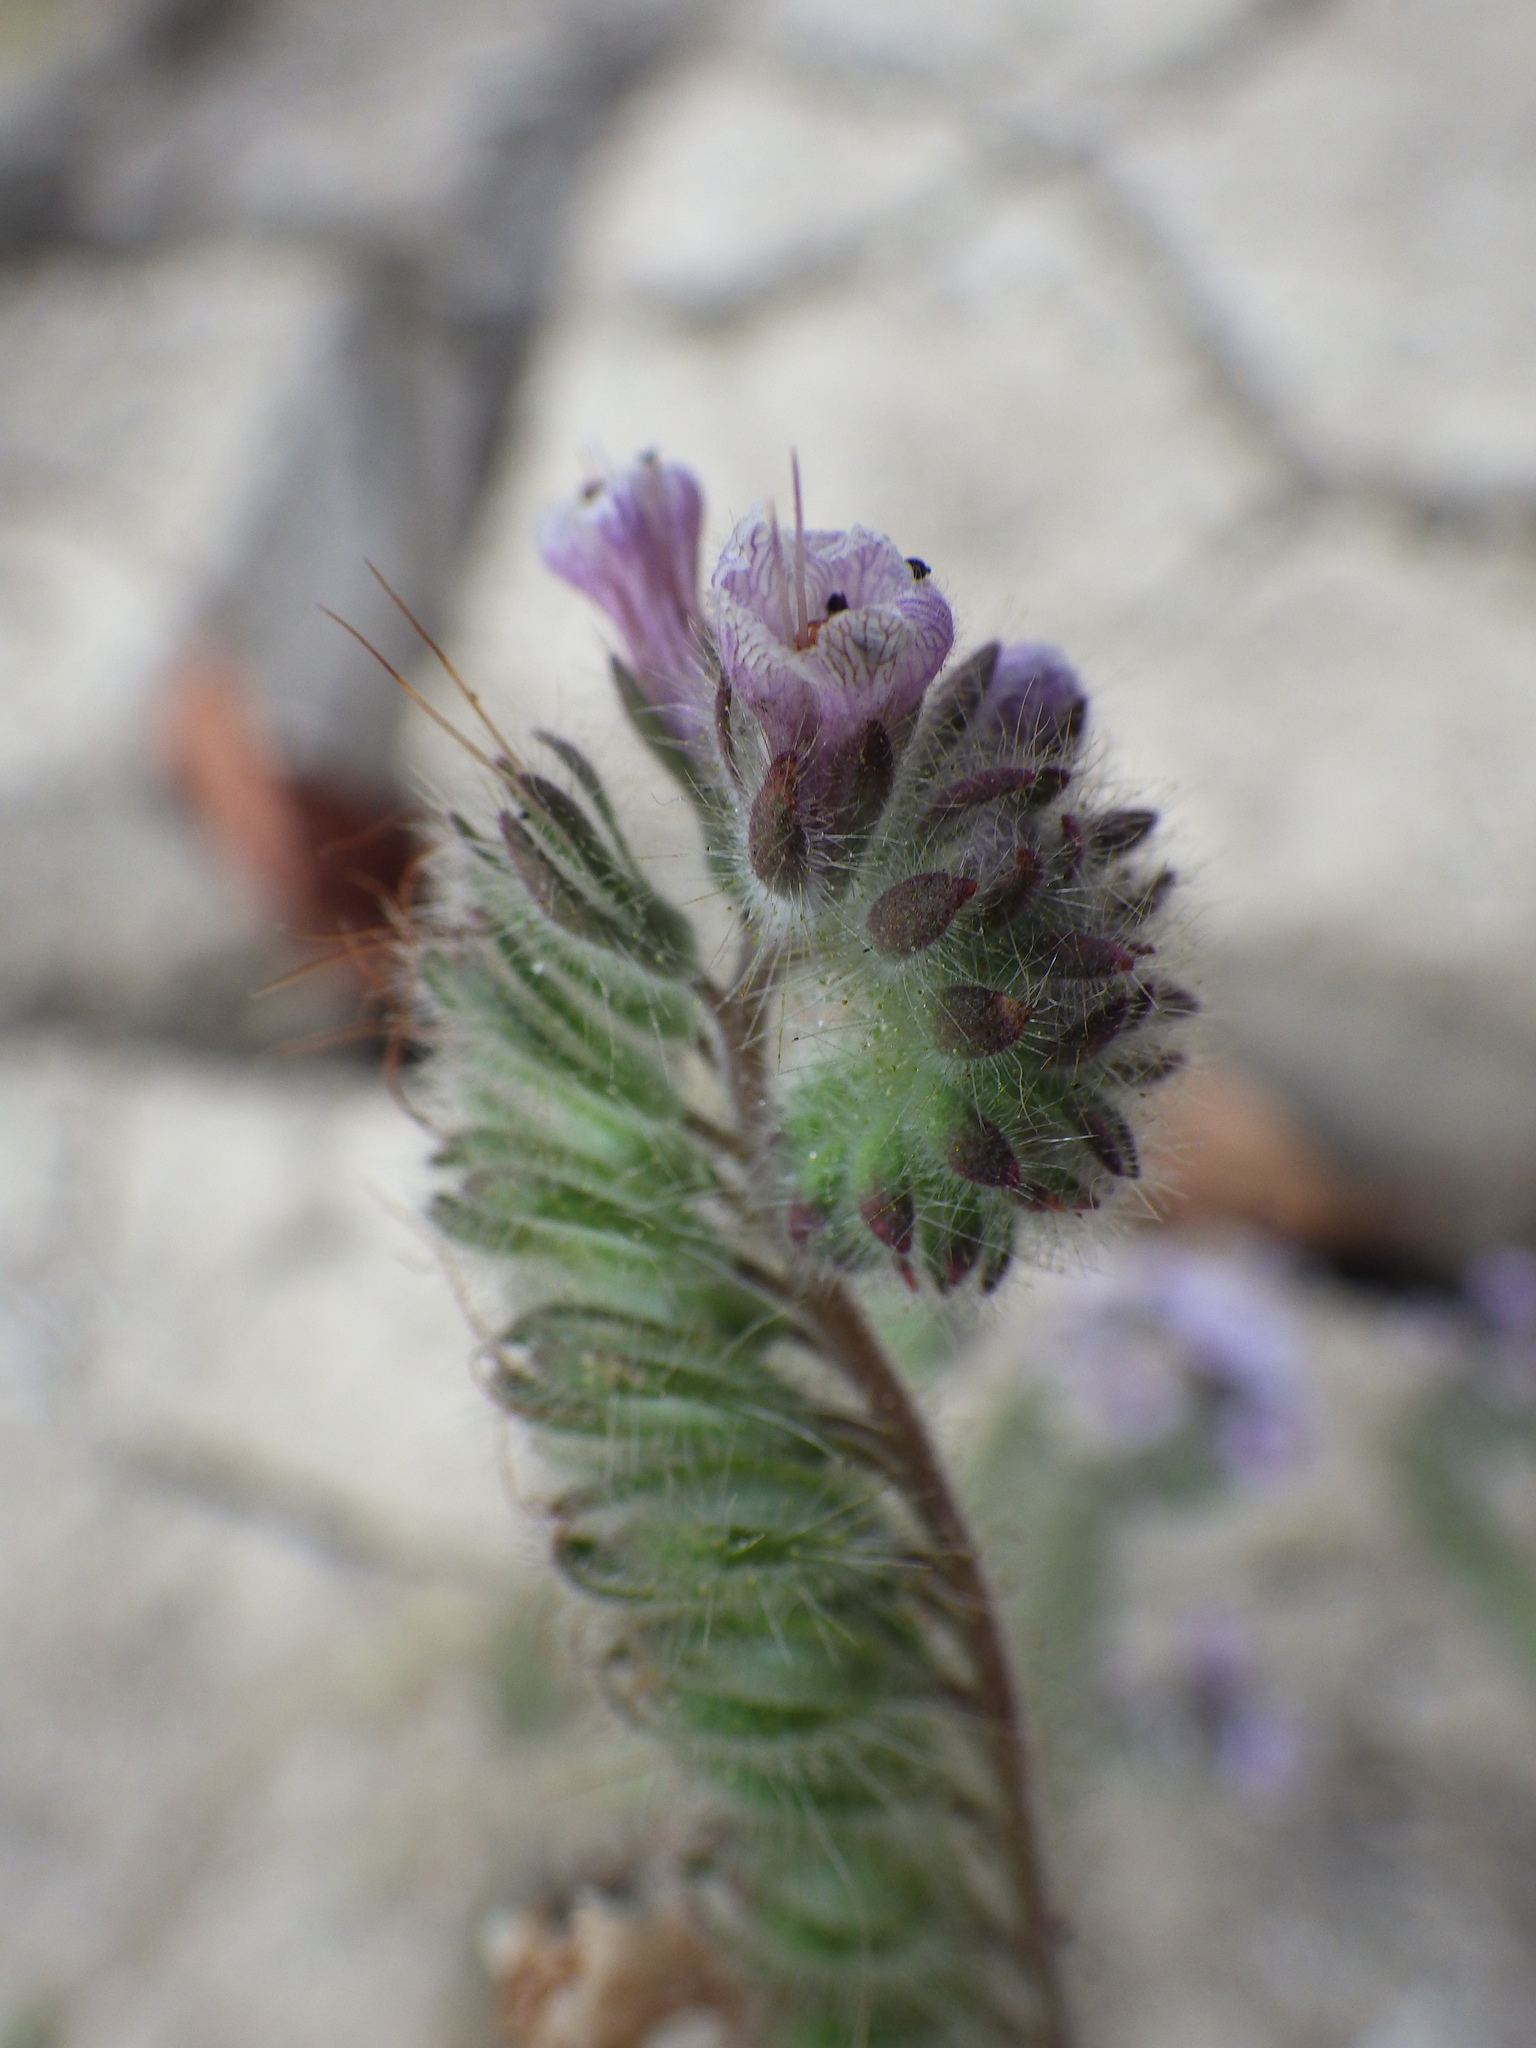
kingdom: Plantae
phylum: Tracheophyta
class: Magnoliopsida
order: Boraginales
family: Hydrophyllaceae
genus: Phacelia
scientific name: Phacelia hubbyi
